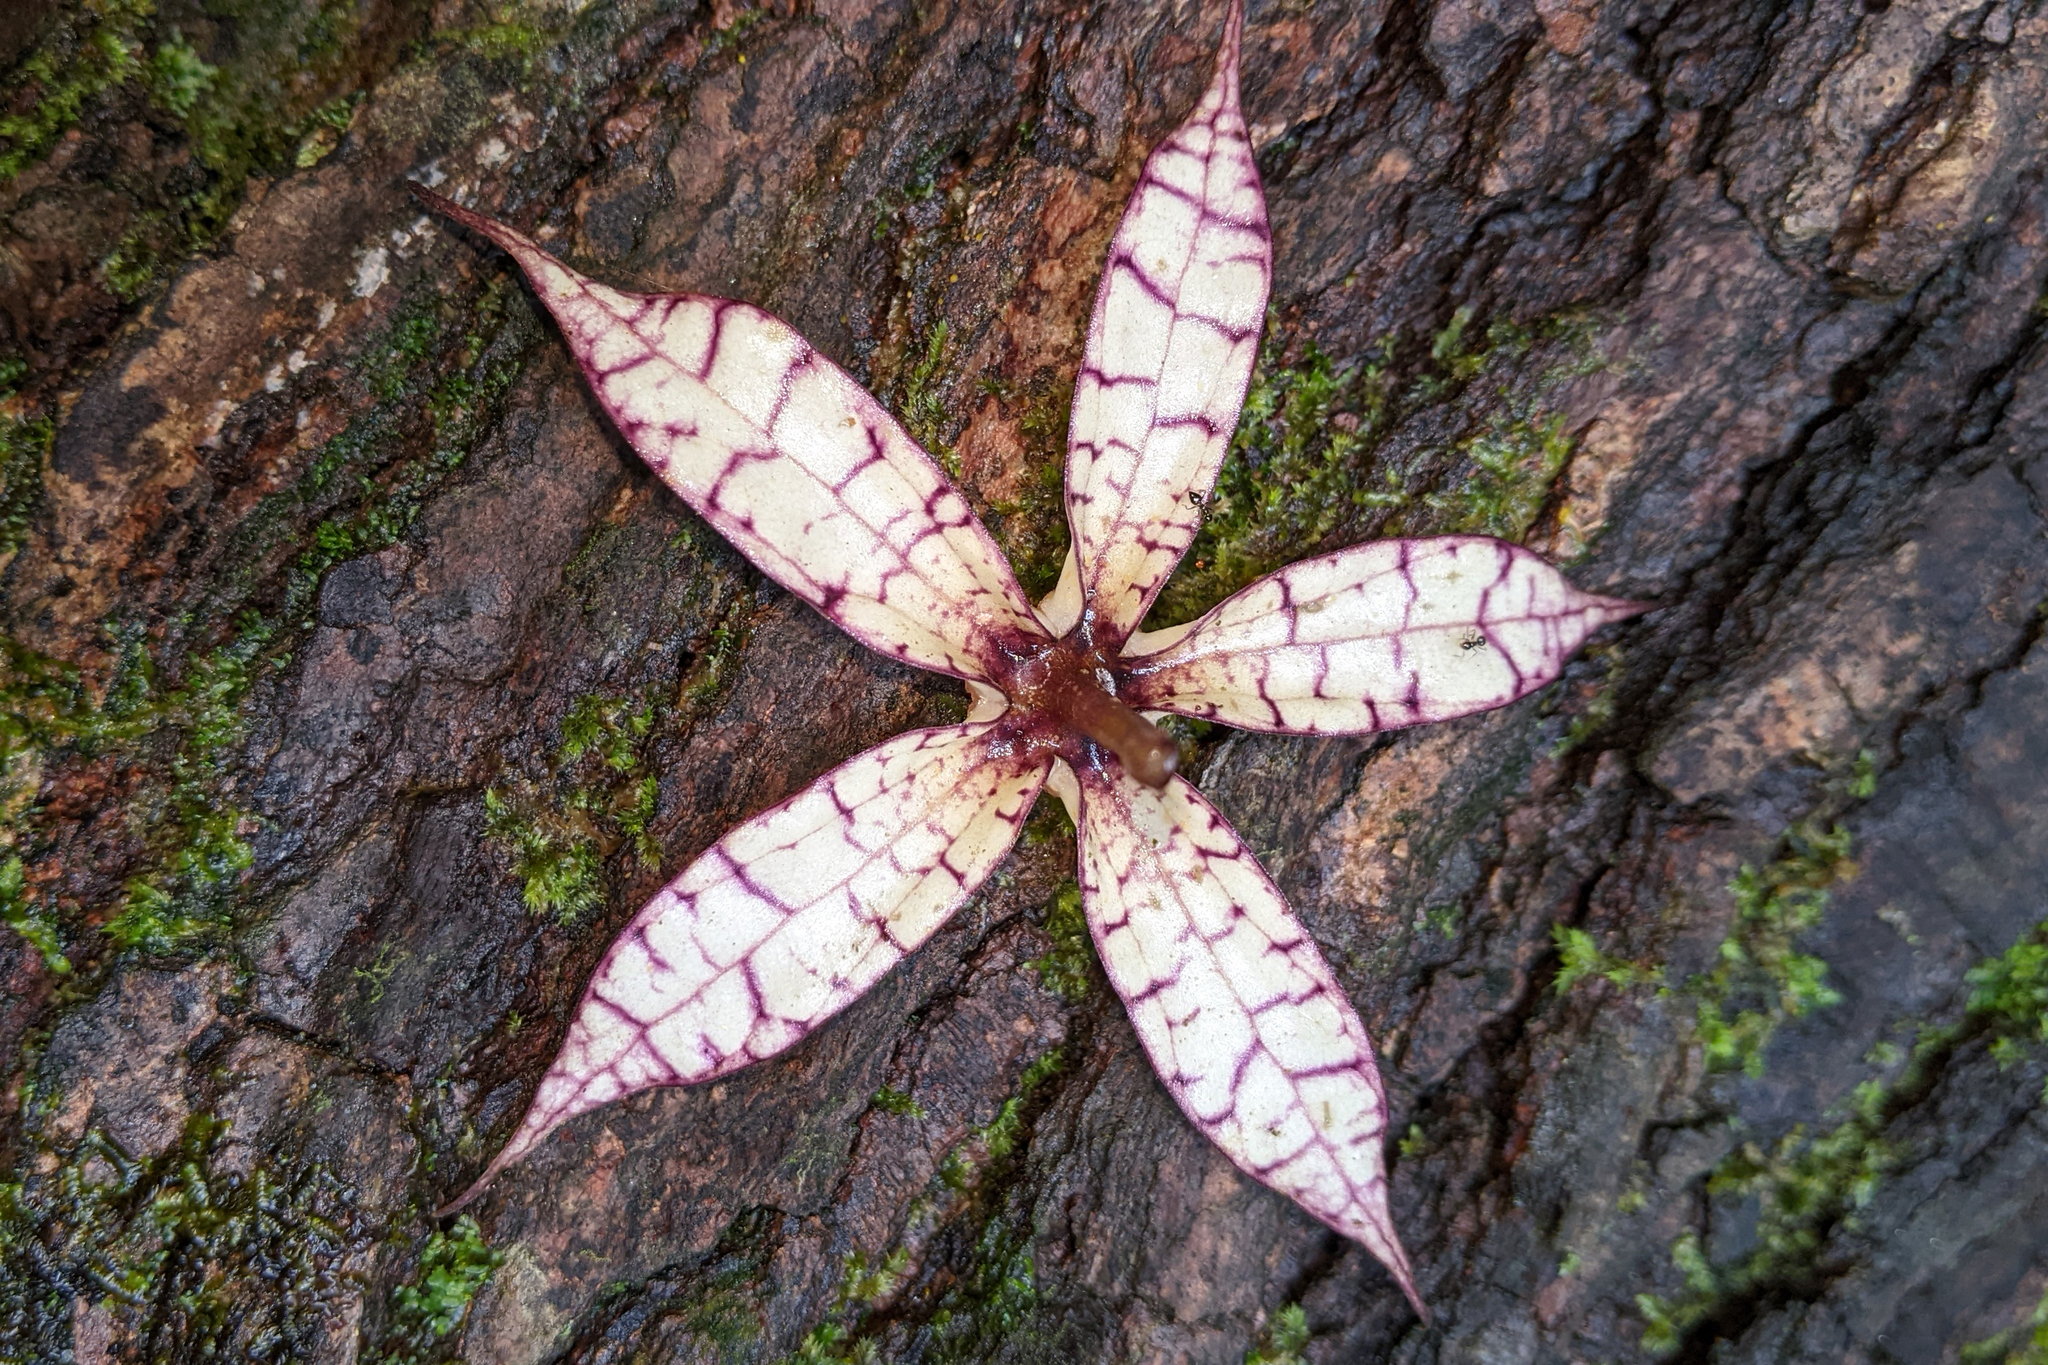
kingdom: Plantae
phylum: Tracheophyta
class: Magnoliopsida
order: Solanales
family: Solanaceae
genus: Markea
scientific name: Markea longiflora
